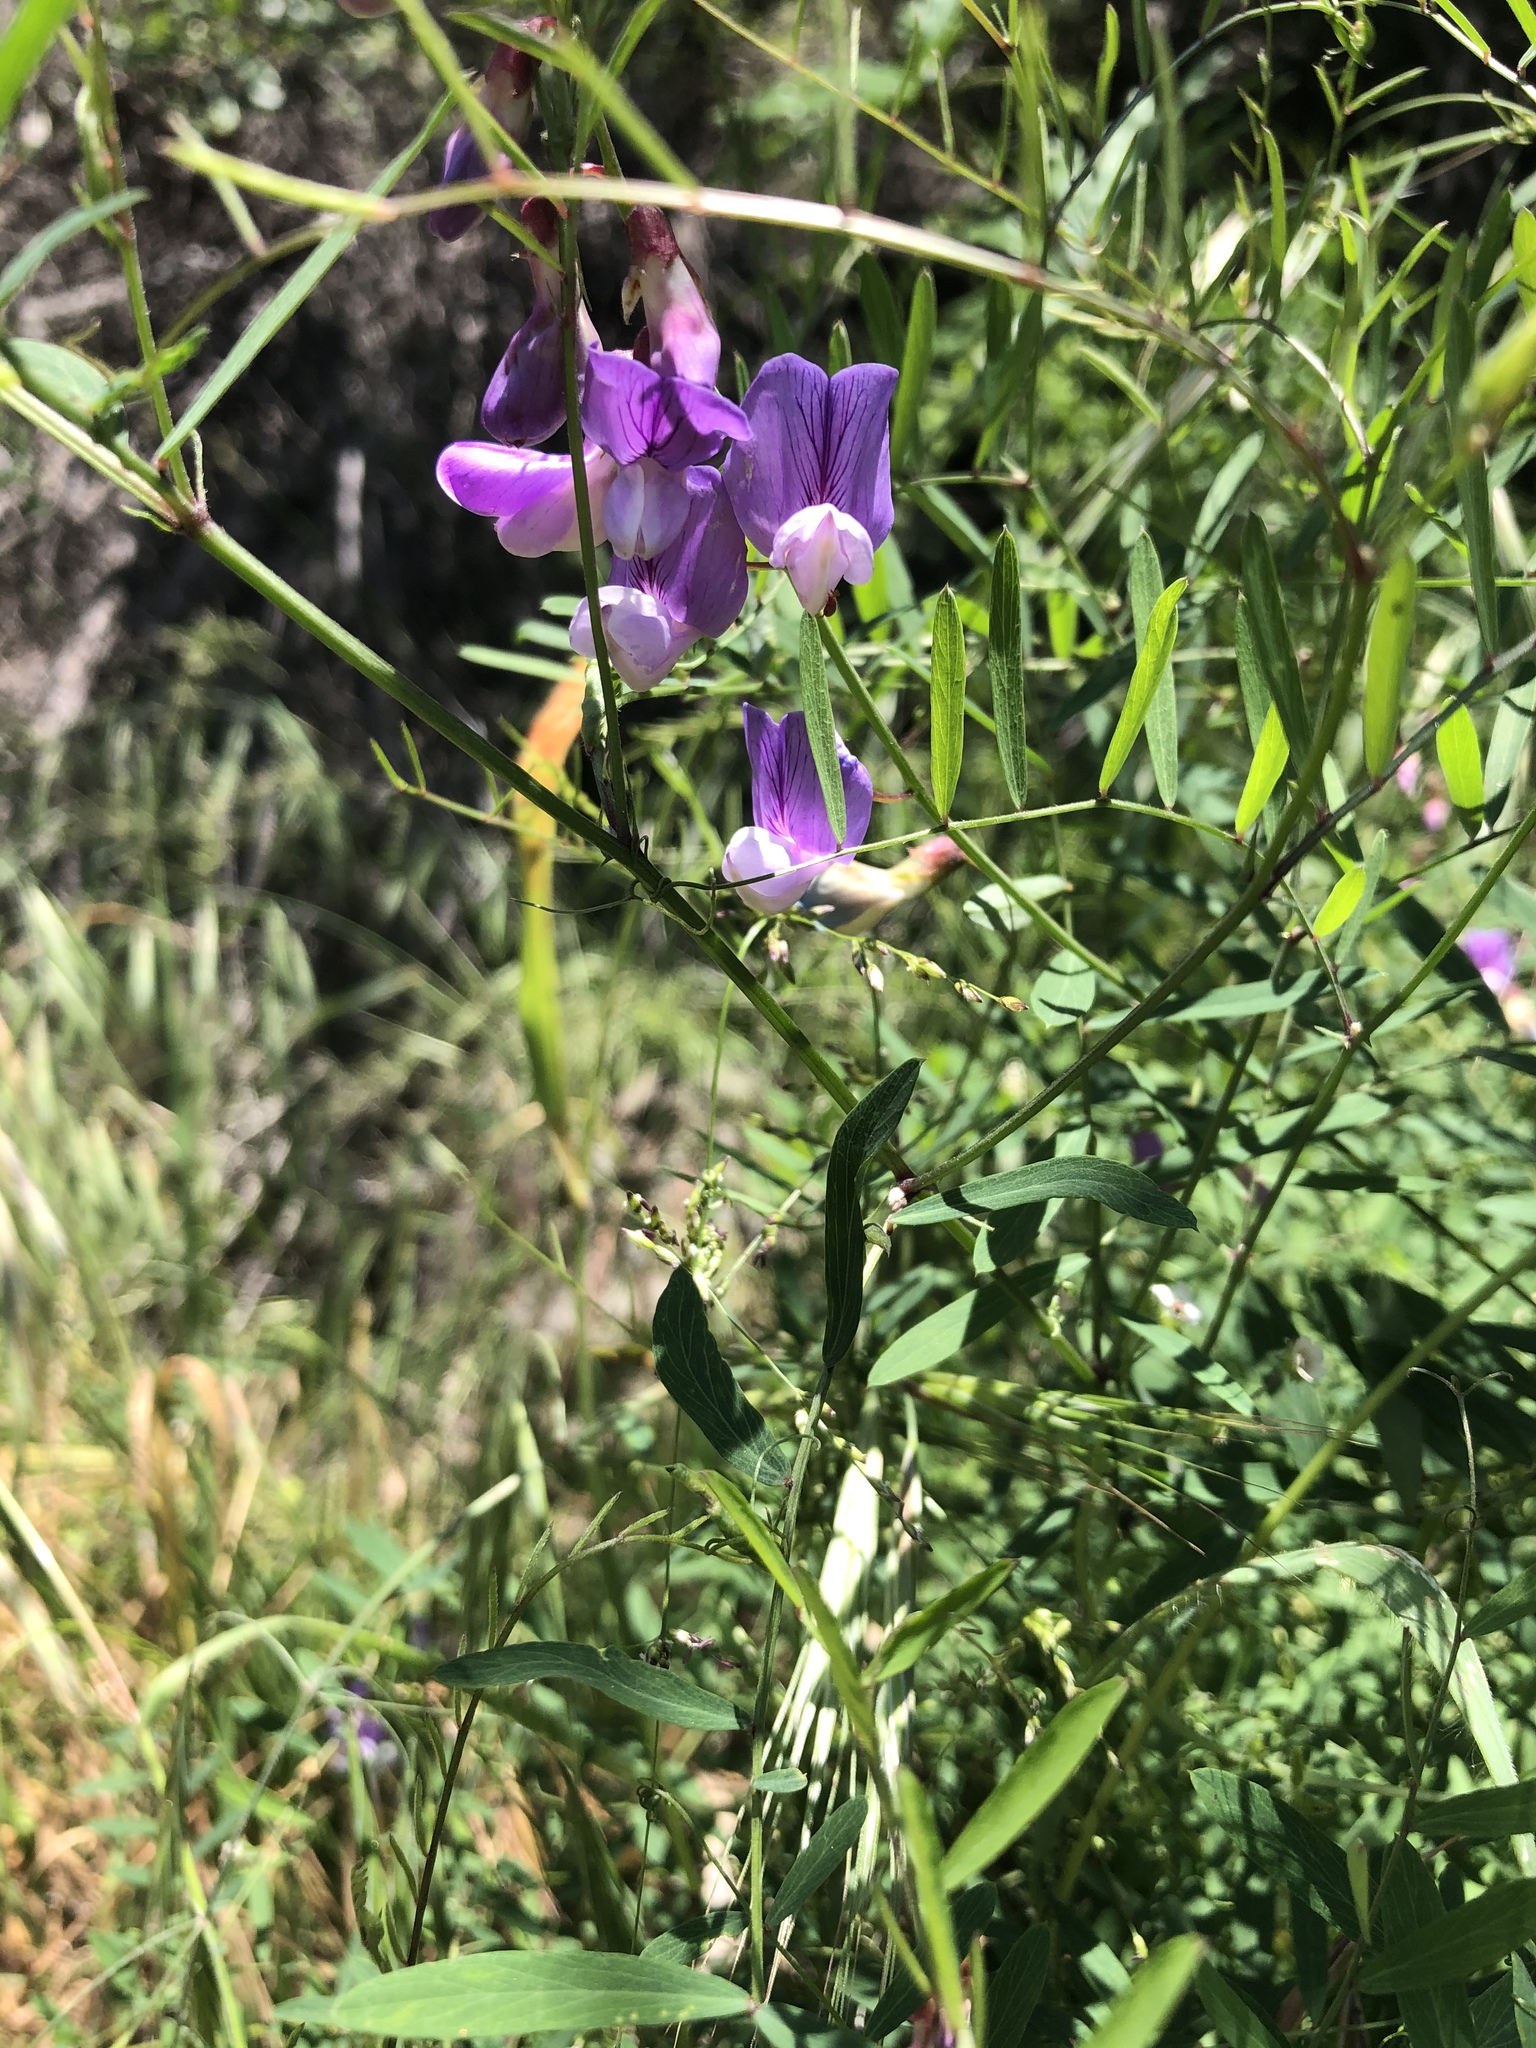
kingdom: Plantae
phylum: Tracheophyta
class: Magnoliopsida
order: Fabales
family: Fabaceae
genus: Lathyrus
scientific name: Lathyrus vestitus
